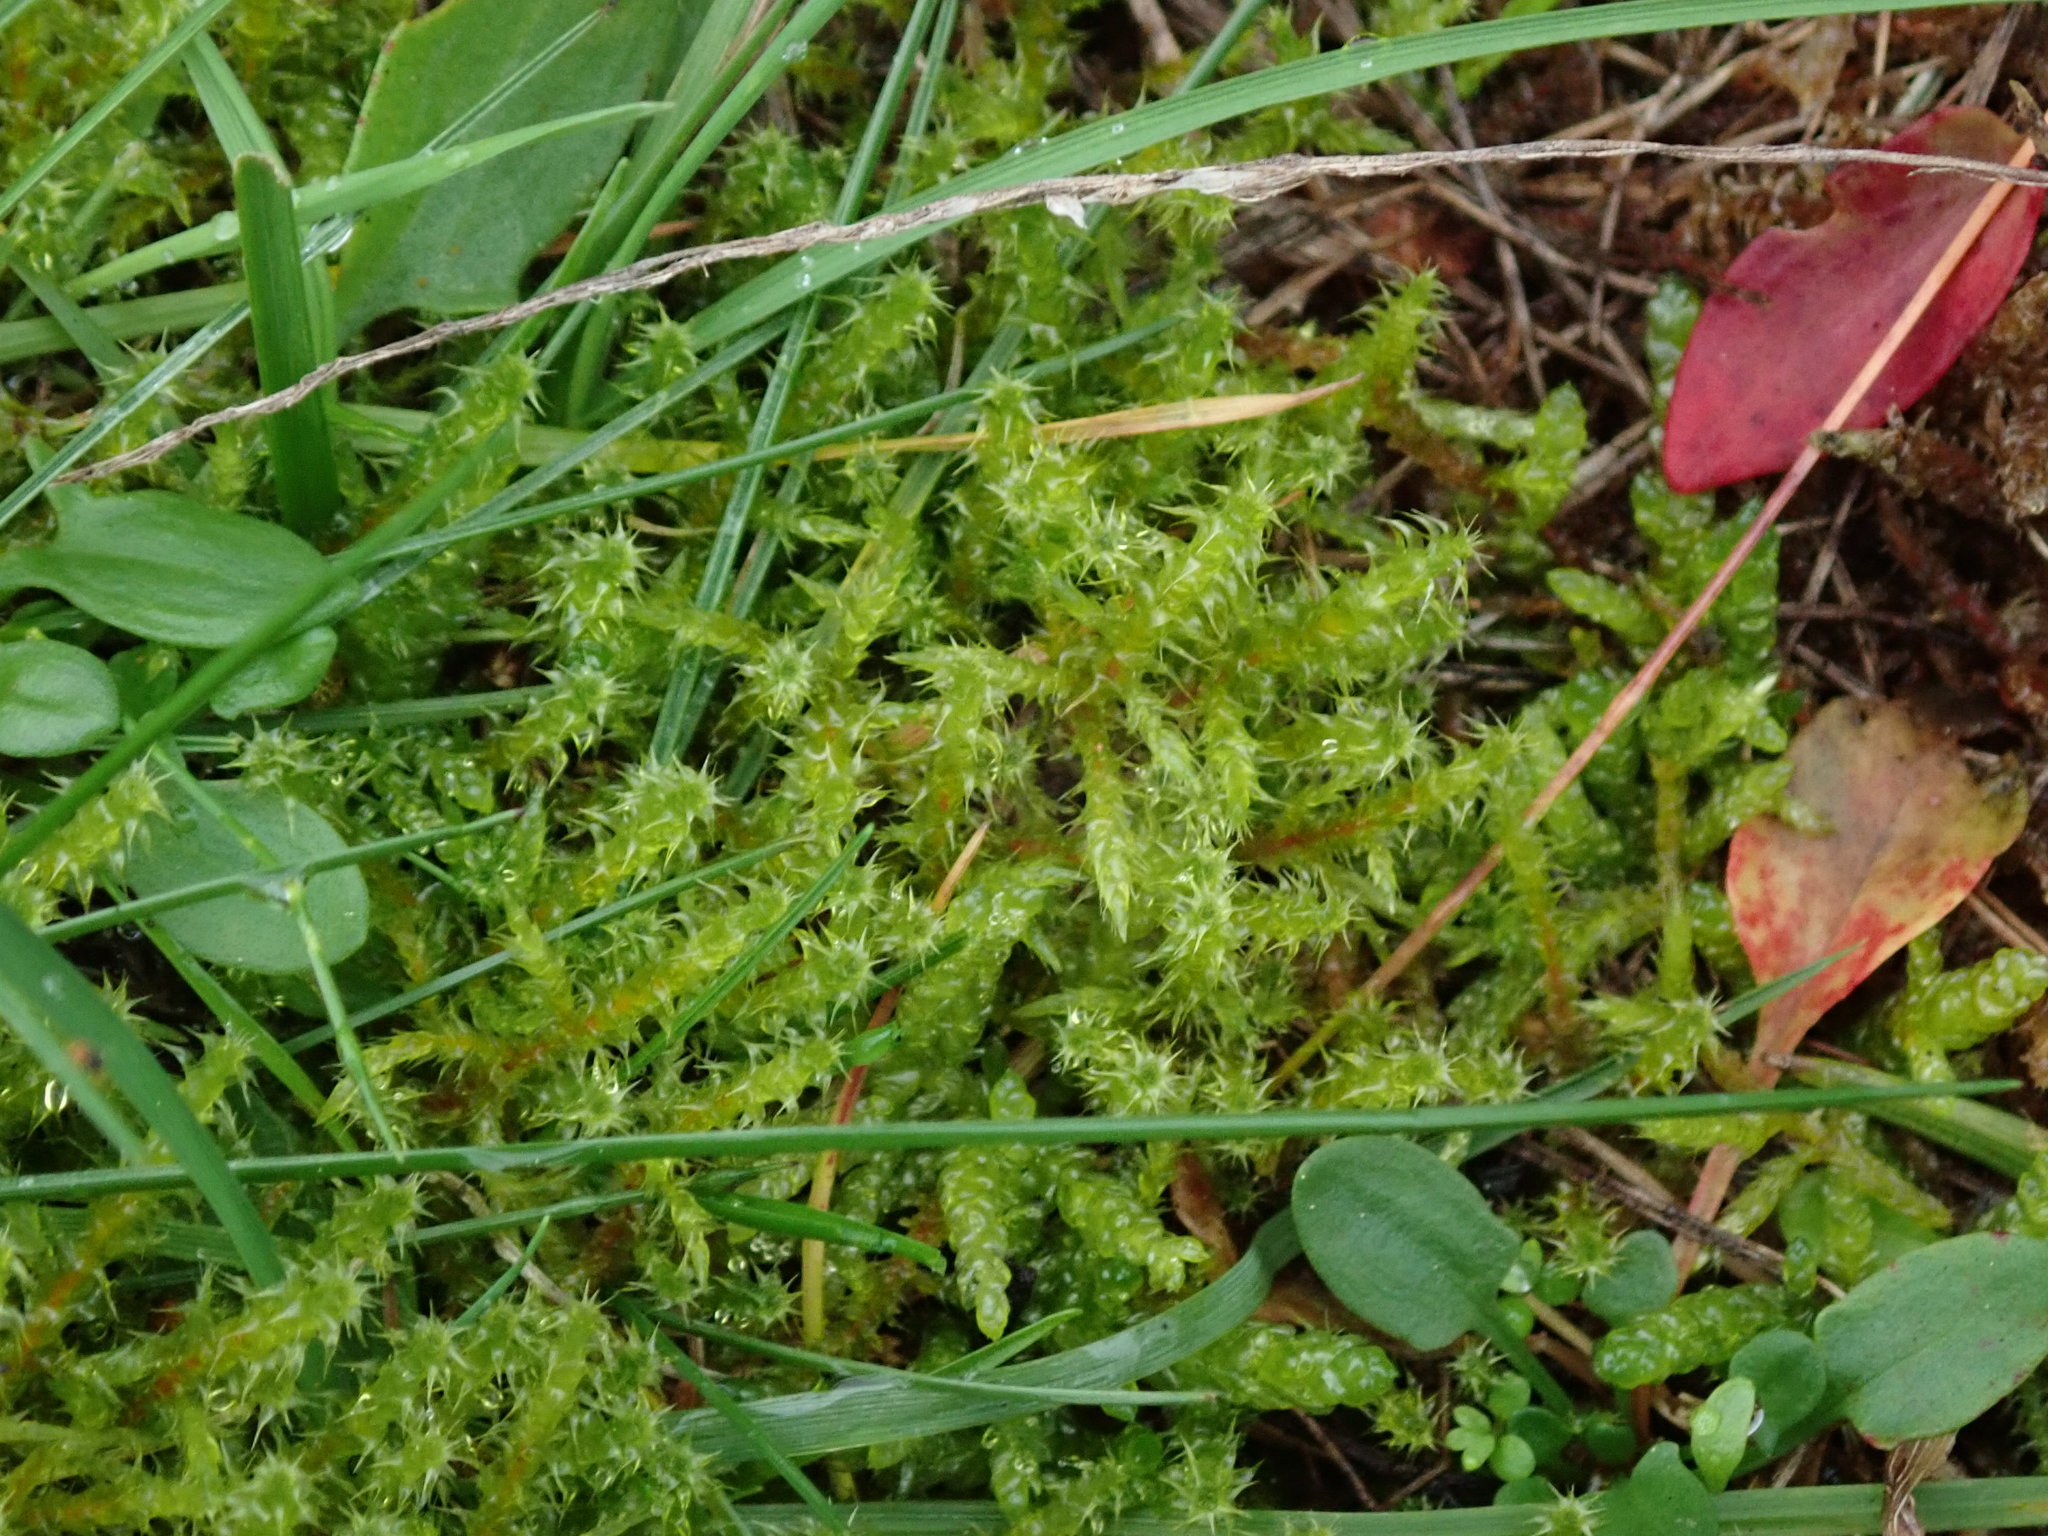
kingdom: Plantae
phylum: Bryophyta
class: Bryopsida
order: Hypnales
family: Hylocomiaceae
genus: Rhytidiadelphus
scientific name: Rhytidiadelphus squarrosus
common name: Springy turf-moss
